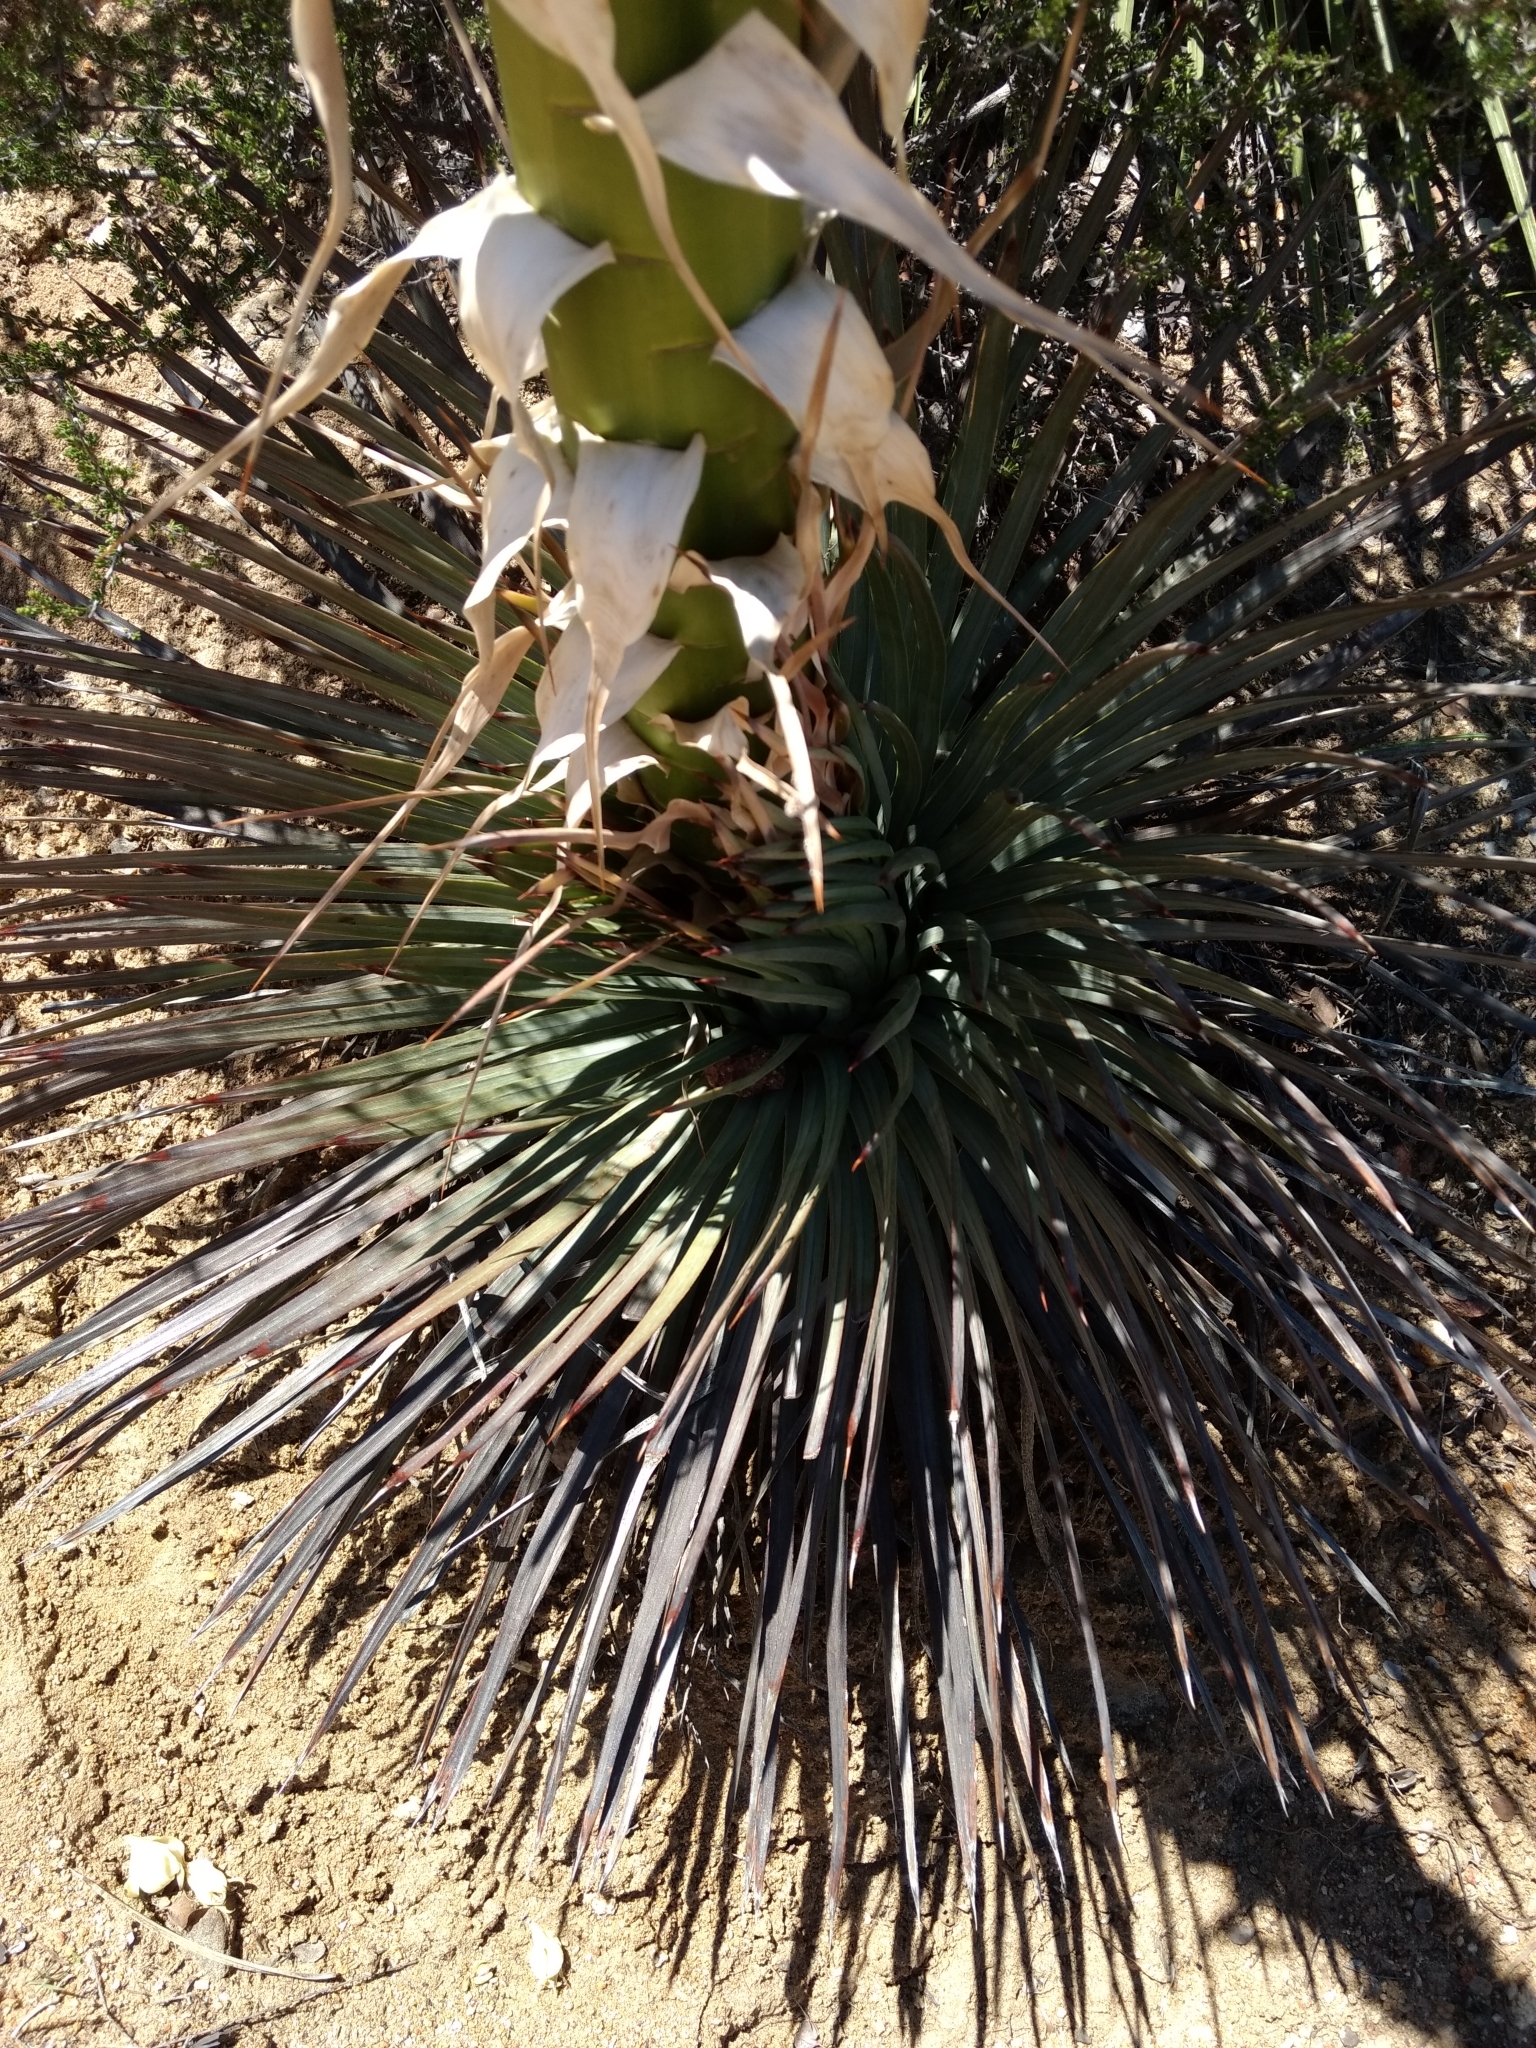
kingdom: Plantae
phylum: Tracheophyta
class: Liliopsida
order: Asparagales
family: Asparagaceae
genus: Hesperoyucca
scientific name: Hesperoyucca whipplei
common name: Our lord's-candle
